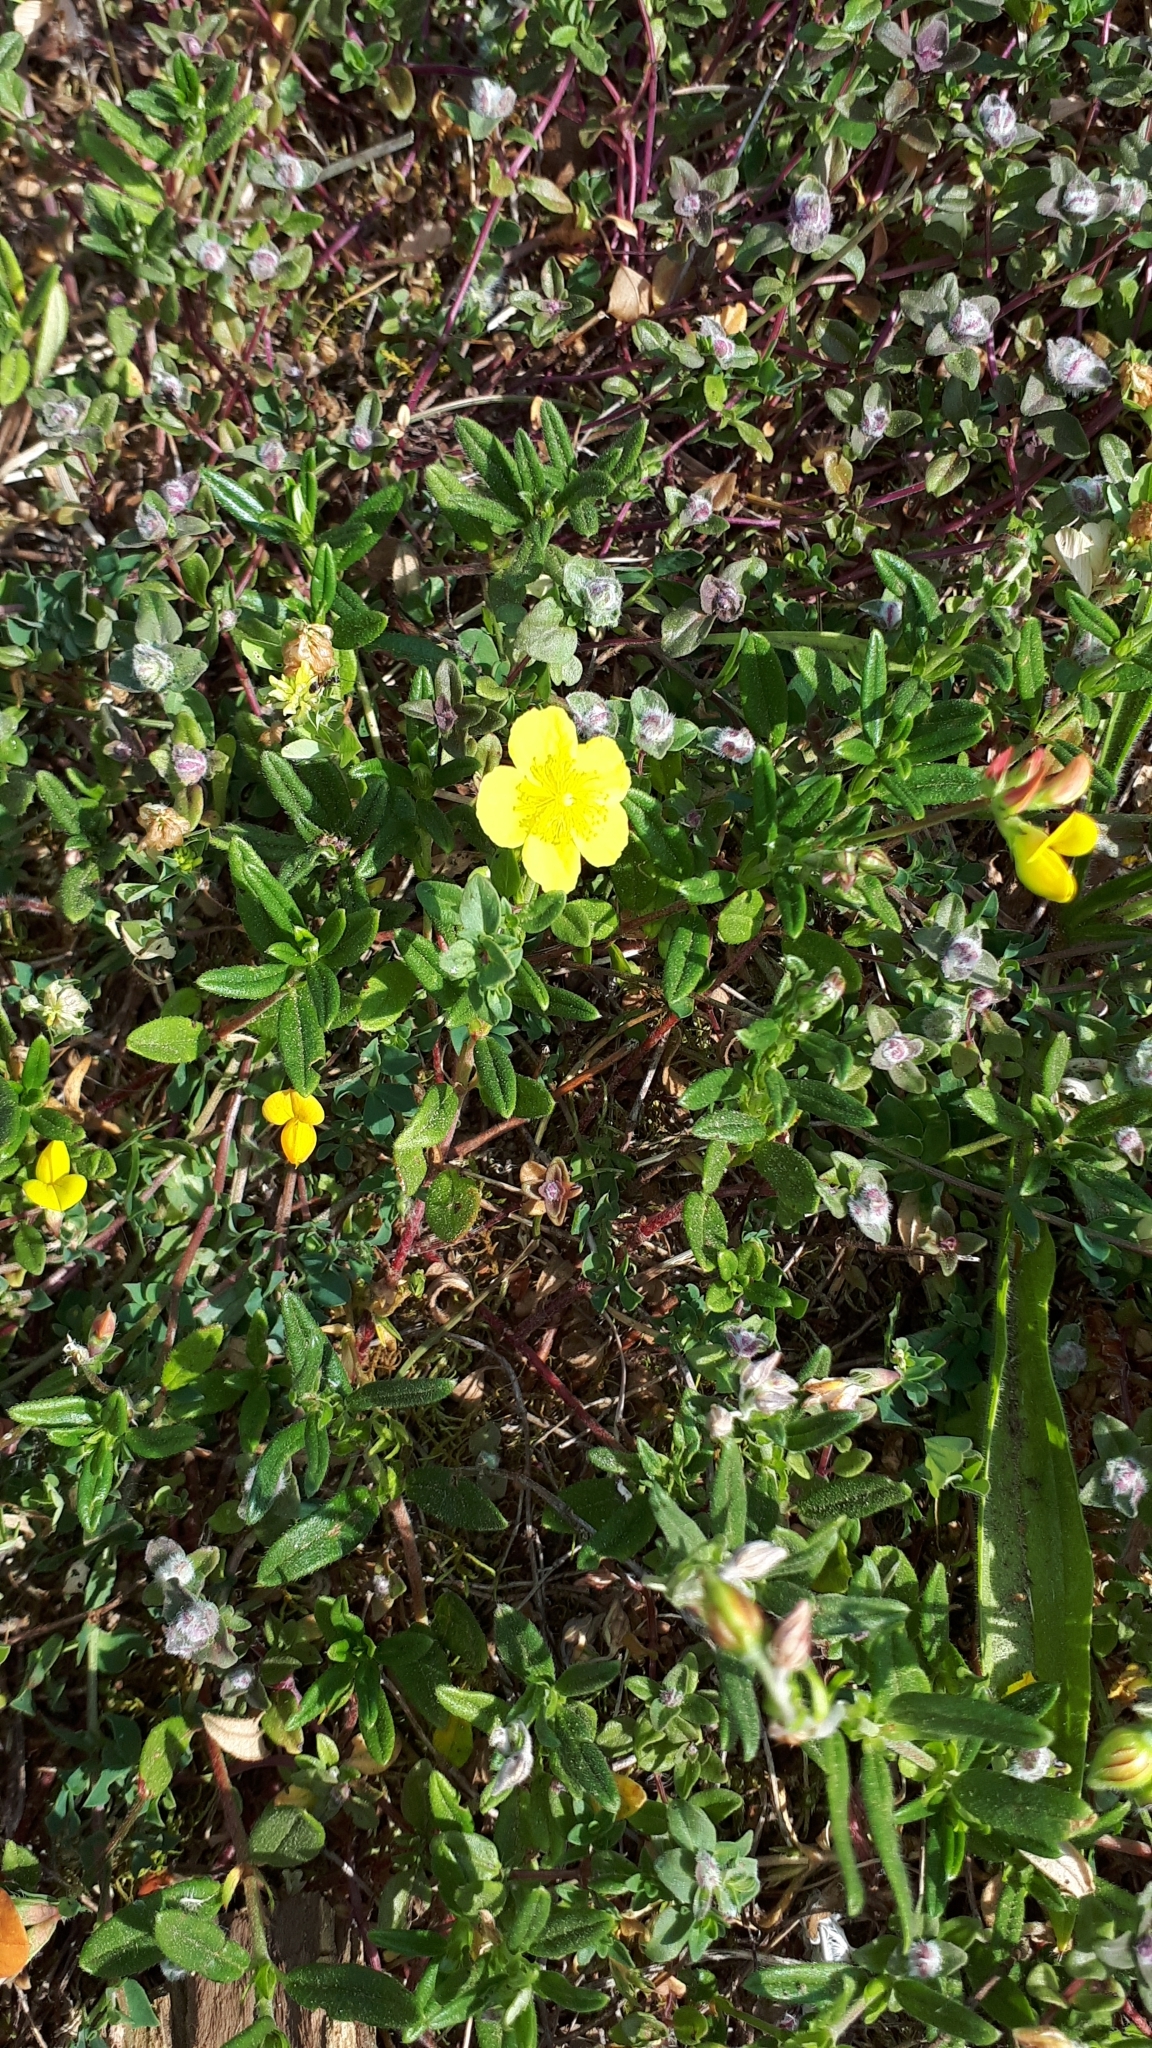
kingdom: Plantae
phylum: Tracheophyta
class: Magnoliopsida
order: Malvales
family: Cistaceae
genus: Helianthemum
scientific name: Helianthemum nummularium
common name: Common rock-rose
